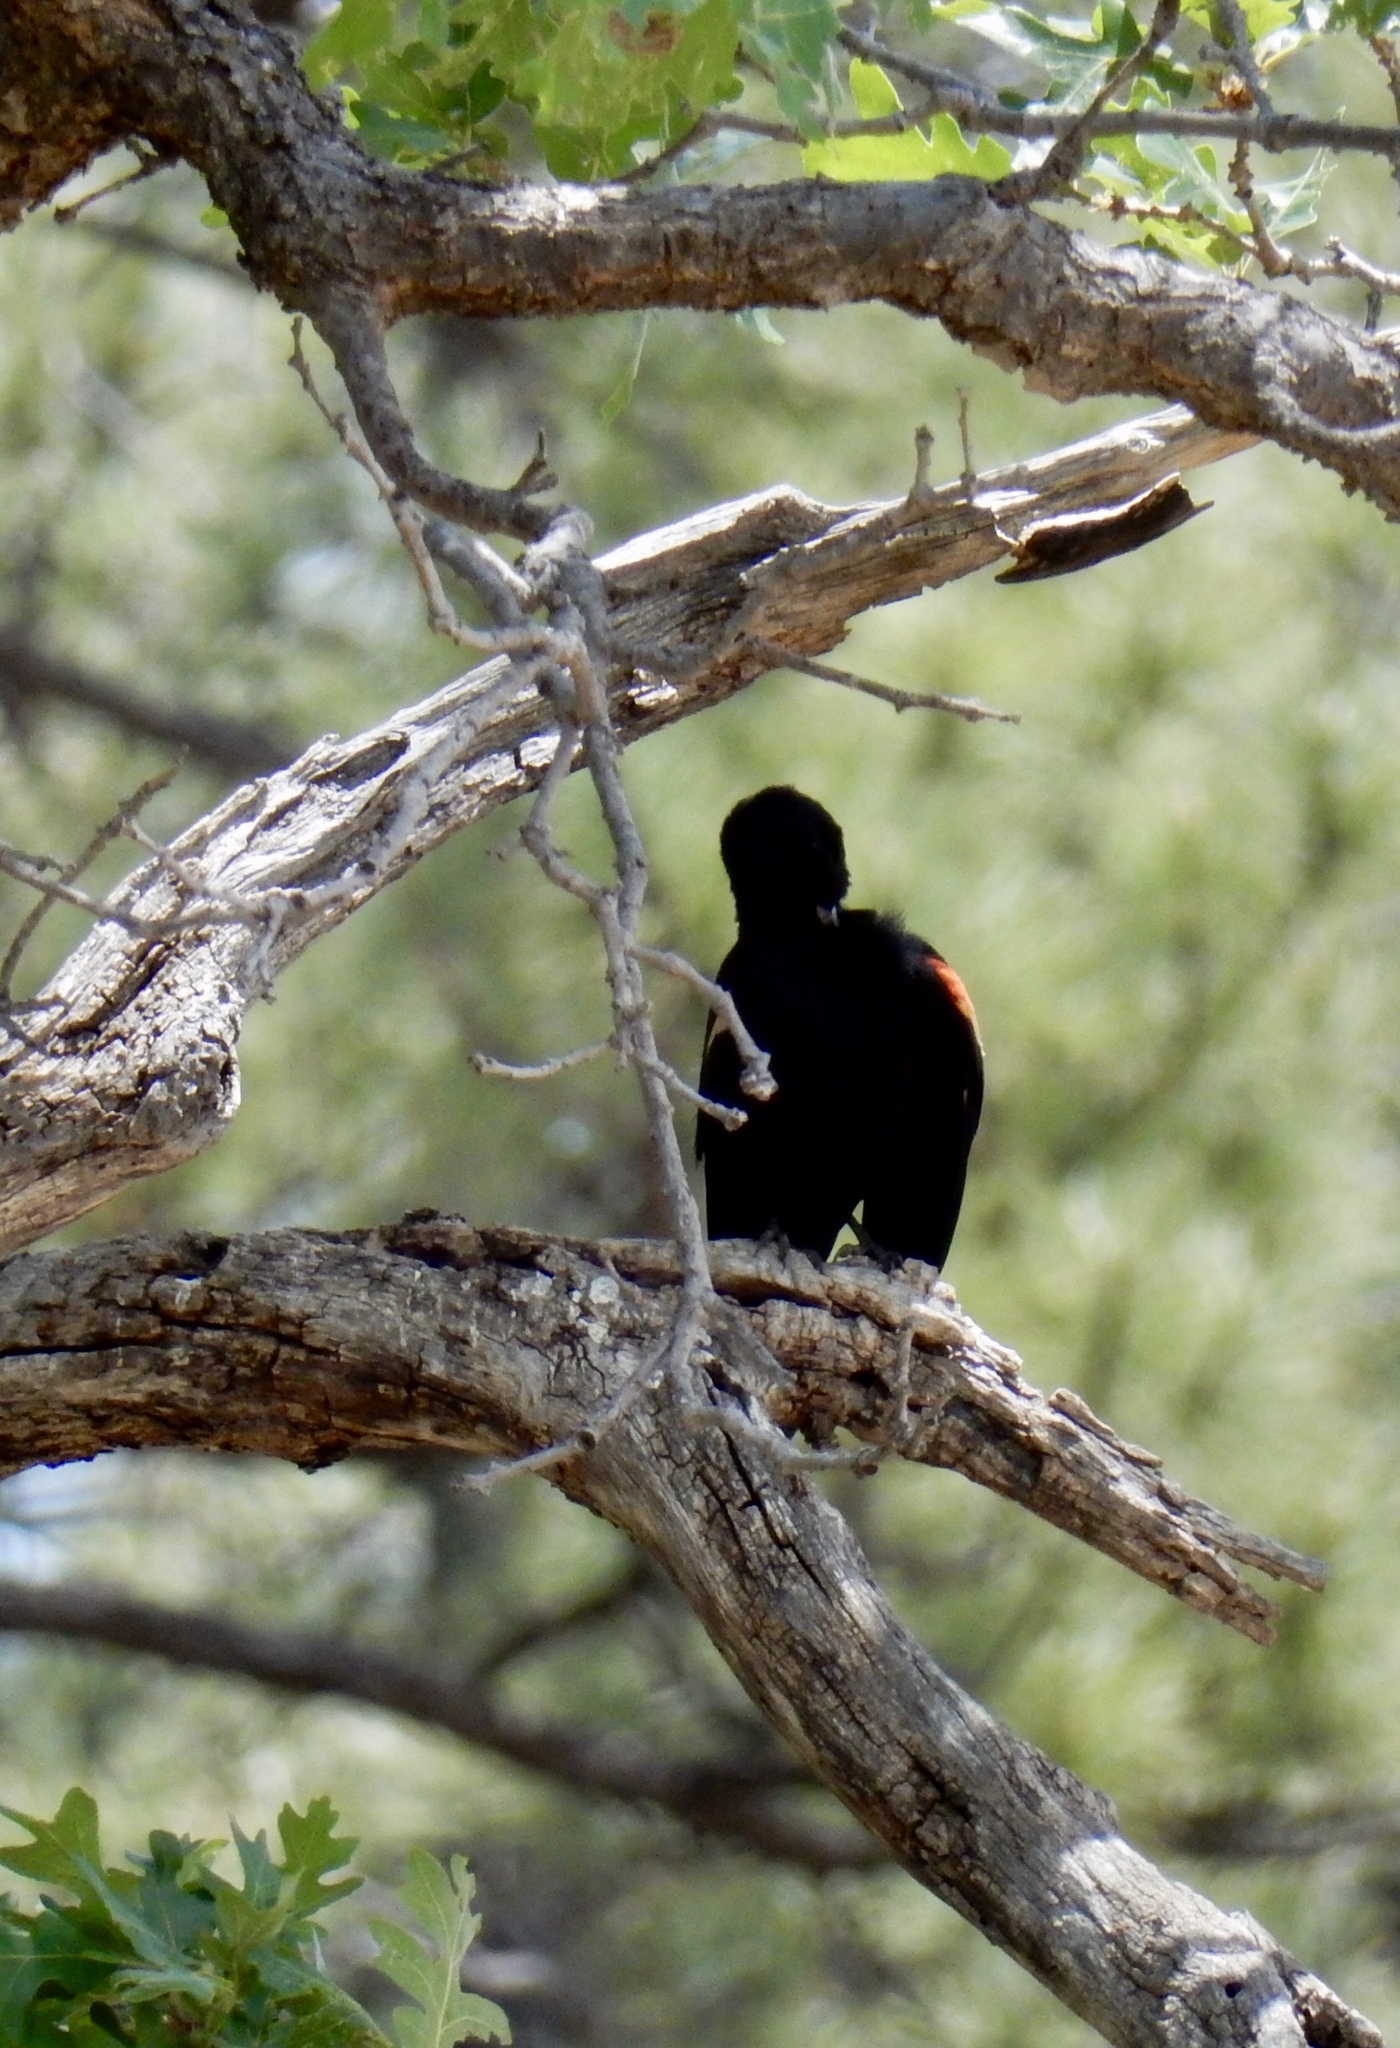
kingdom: Animalia
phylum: Chordata
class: Aves
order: Passeriformes
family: Icteridae
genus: Agelaius
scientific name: Agelaius phoeniceus
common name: Red-winged blackbird
